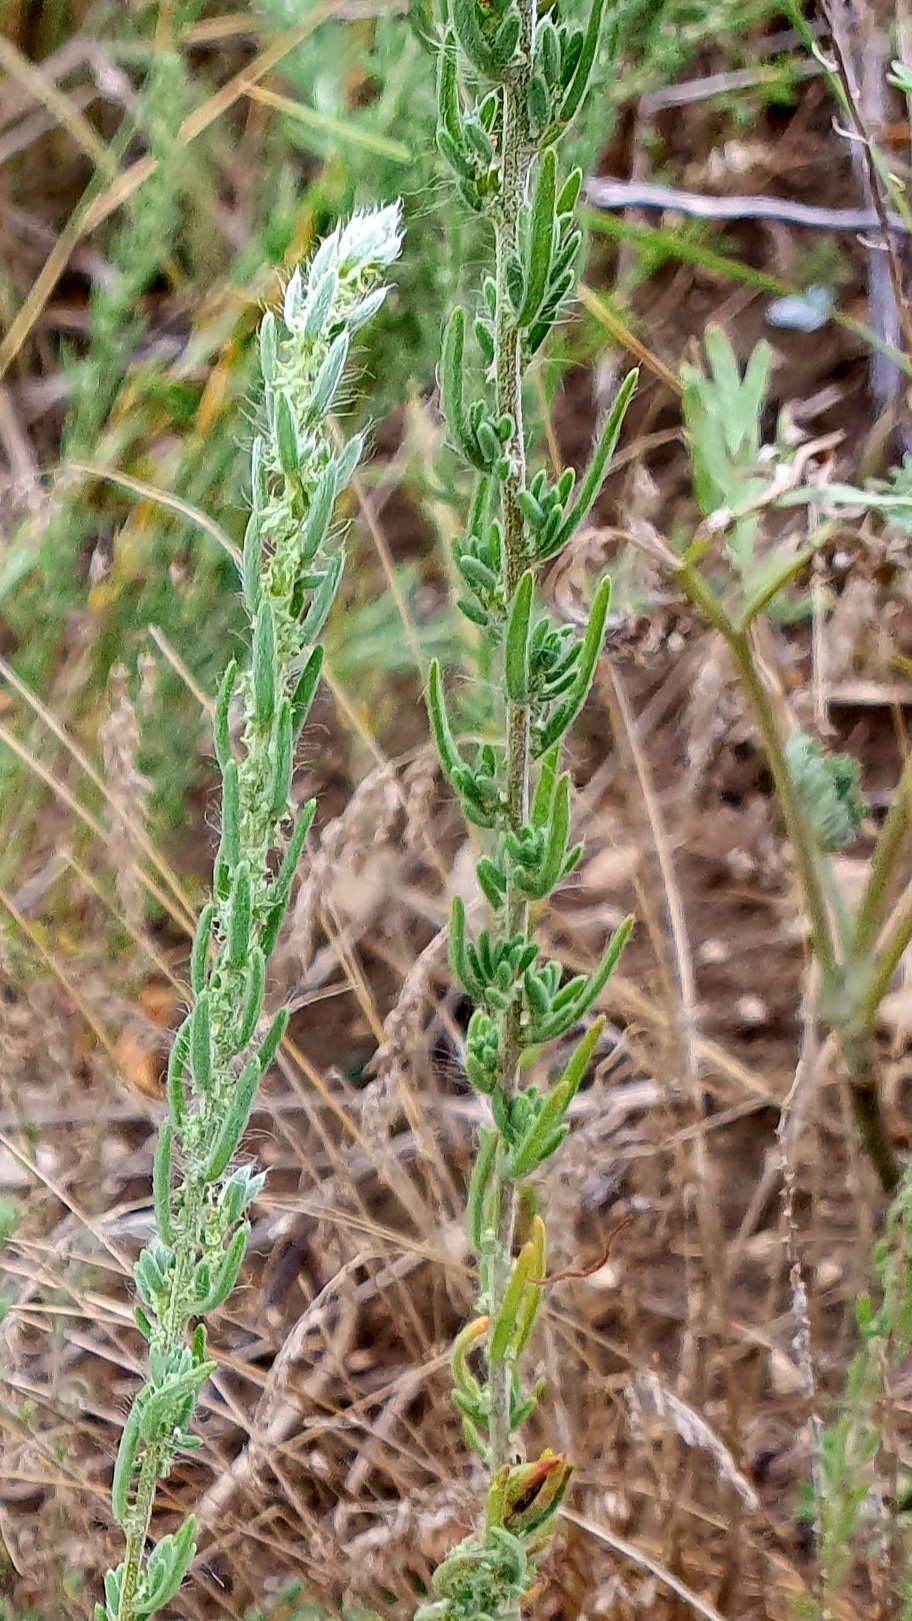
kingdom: Plantae
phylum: Tracheophyta
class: Magnoliopsida
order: Caryophyllales
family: Amaranthaceae
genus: Sedobassia
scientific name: Sedobassia sedoides
